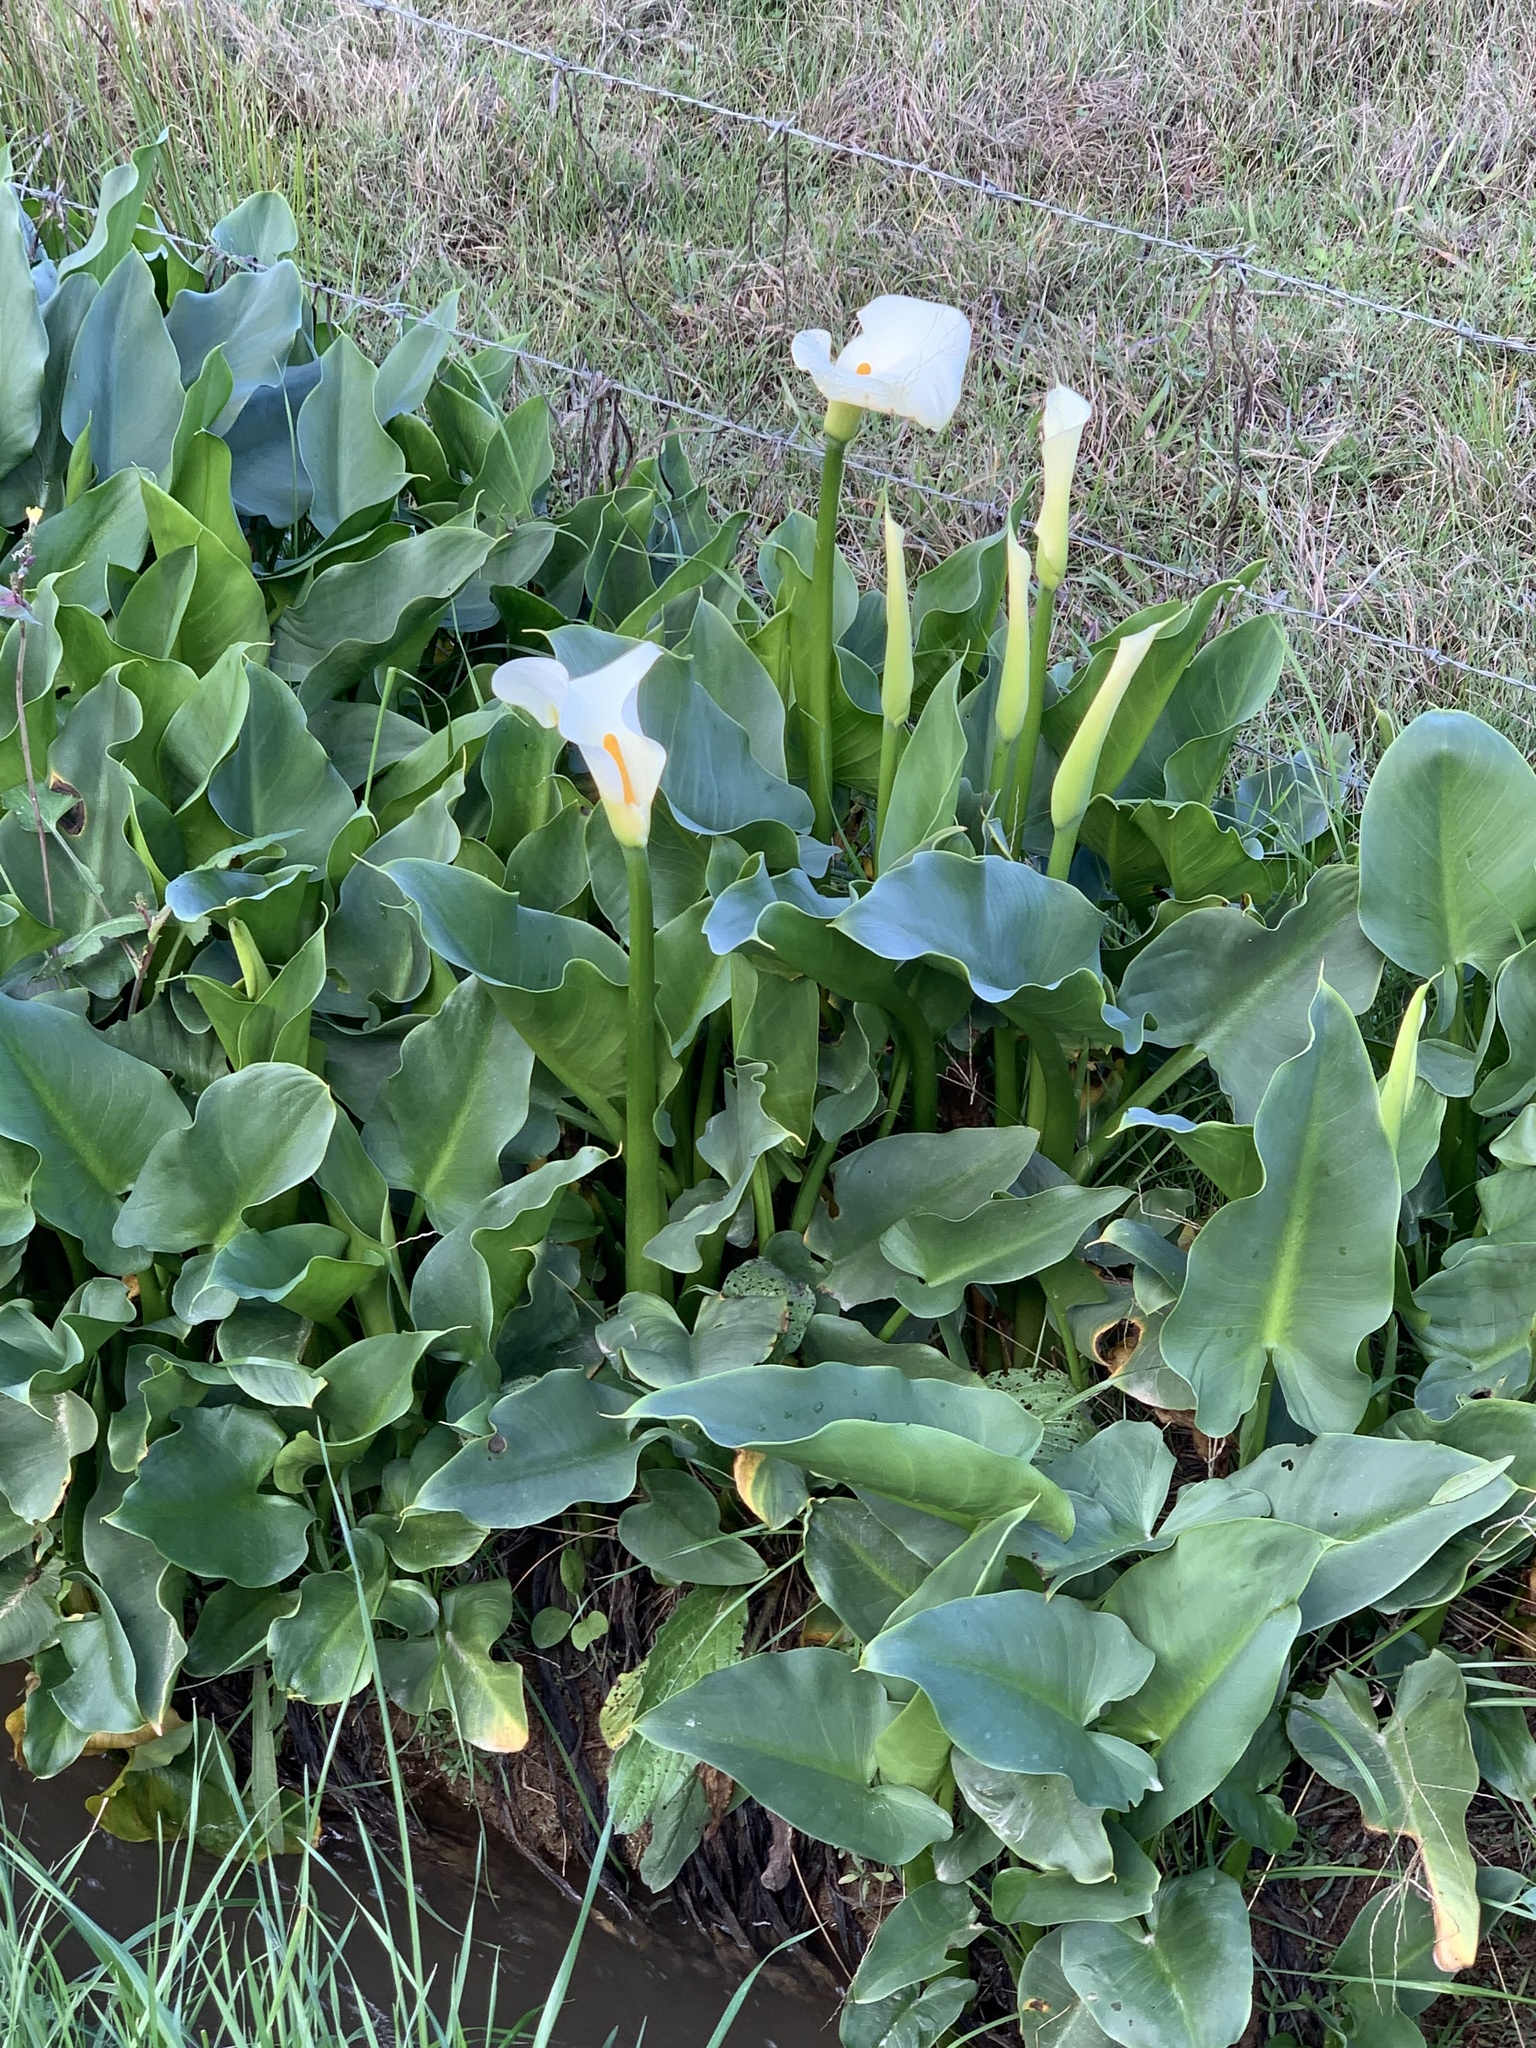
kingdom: Plantae
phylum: Tracheophyta
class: Liliopsida
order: Alismatales
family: Araceae
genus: Zantedeschia
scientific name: Zantedeschia aethiopica
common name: Altar-lily
